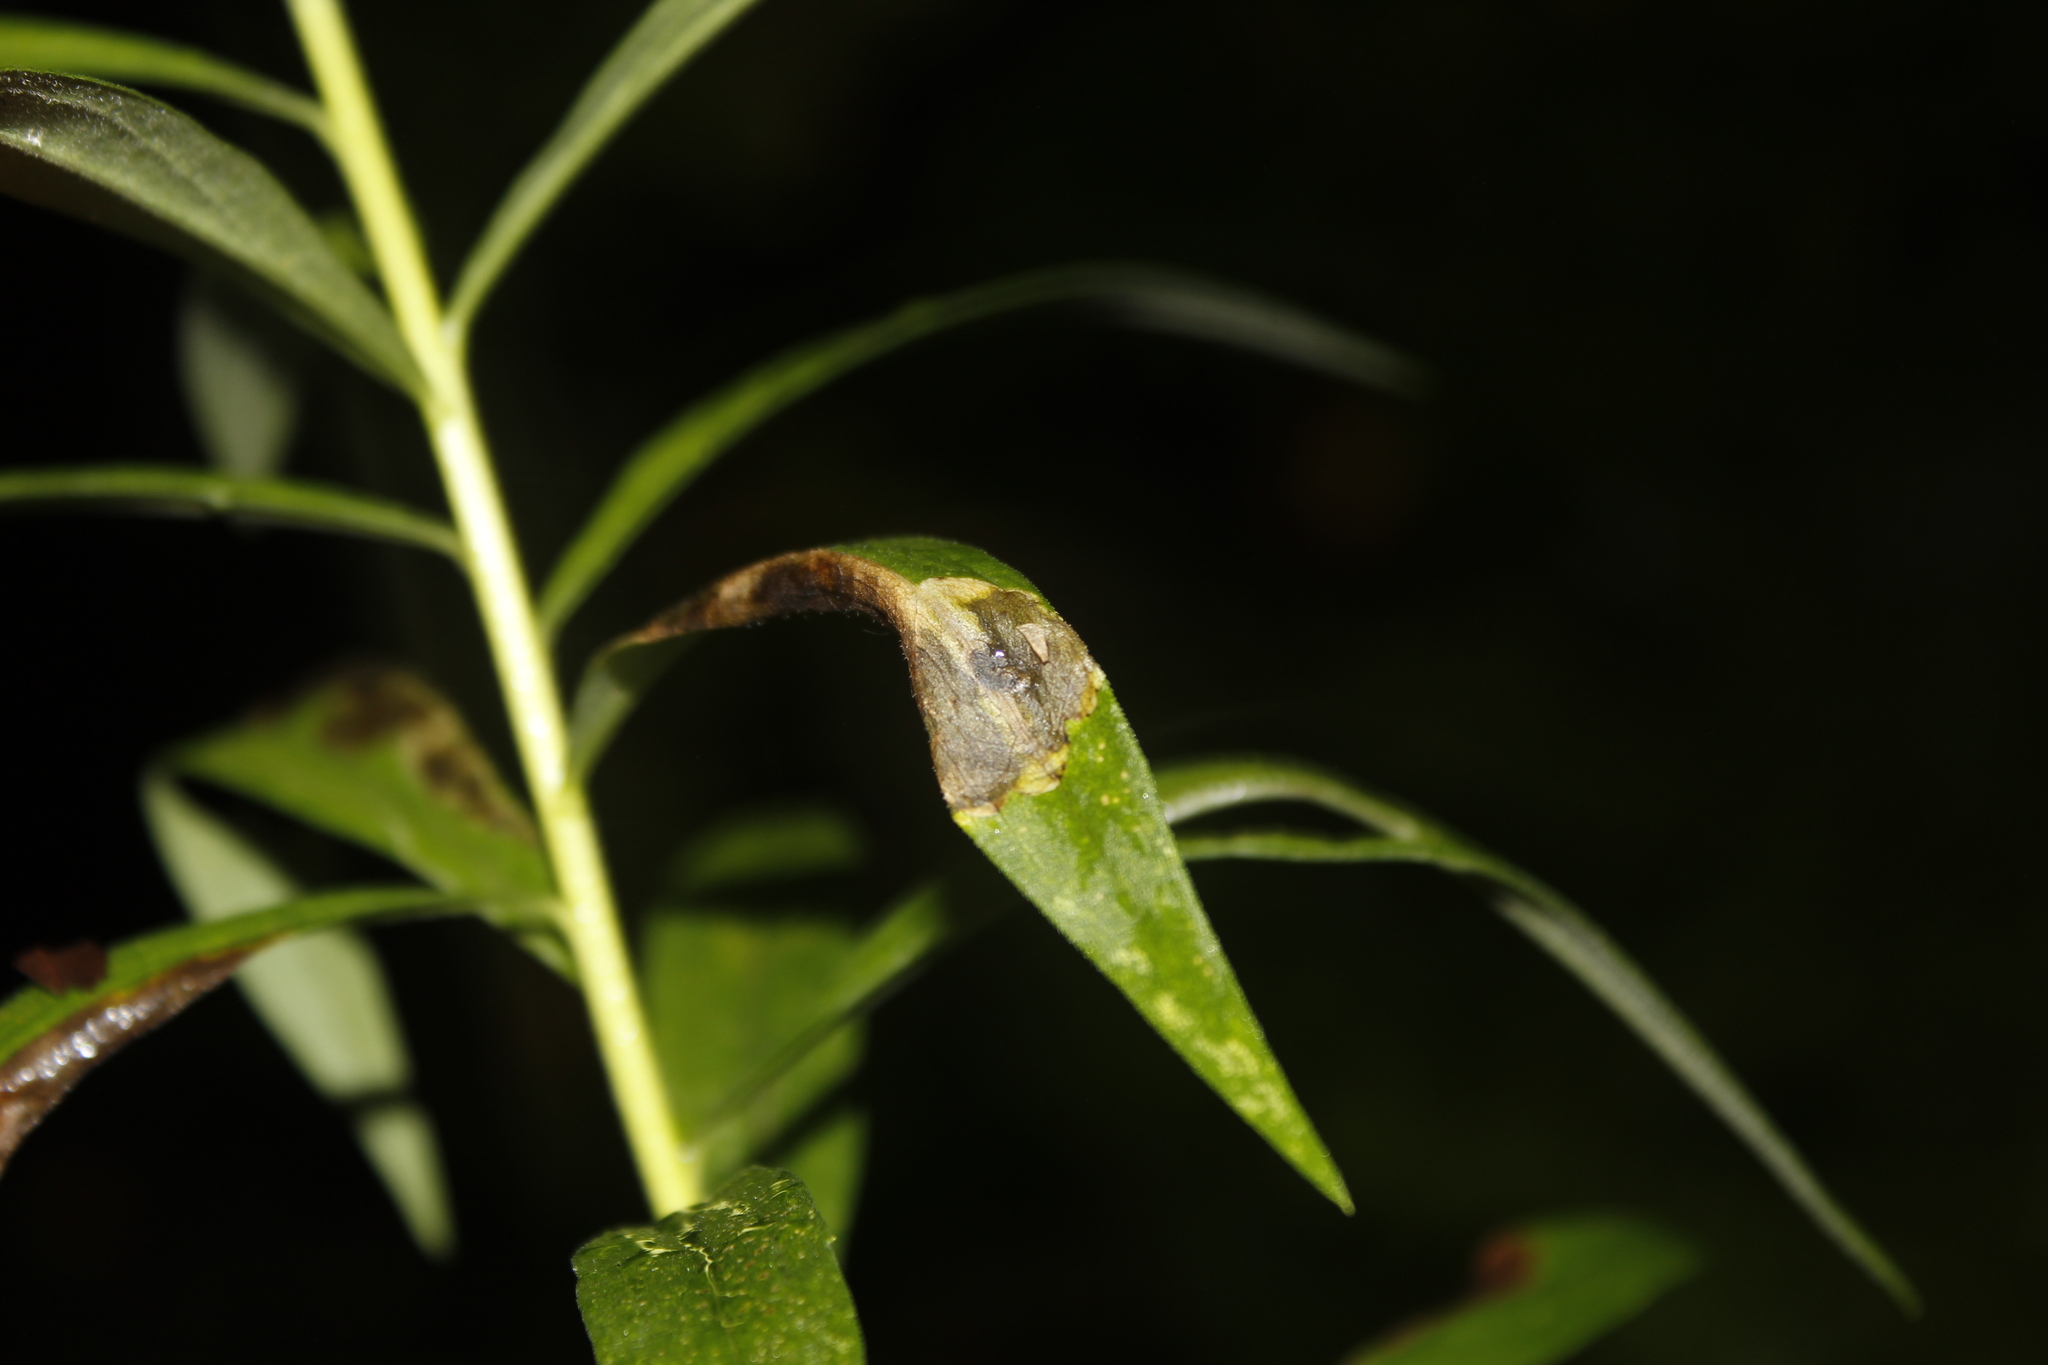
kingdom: Animalia
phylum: Arthropoda
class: Insecta
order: Diptera
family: Agromyzidae
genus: Nemorimyza
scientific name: Nemorimyza posticata
